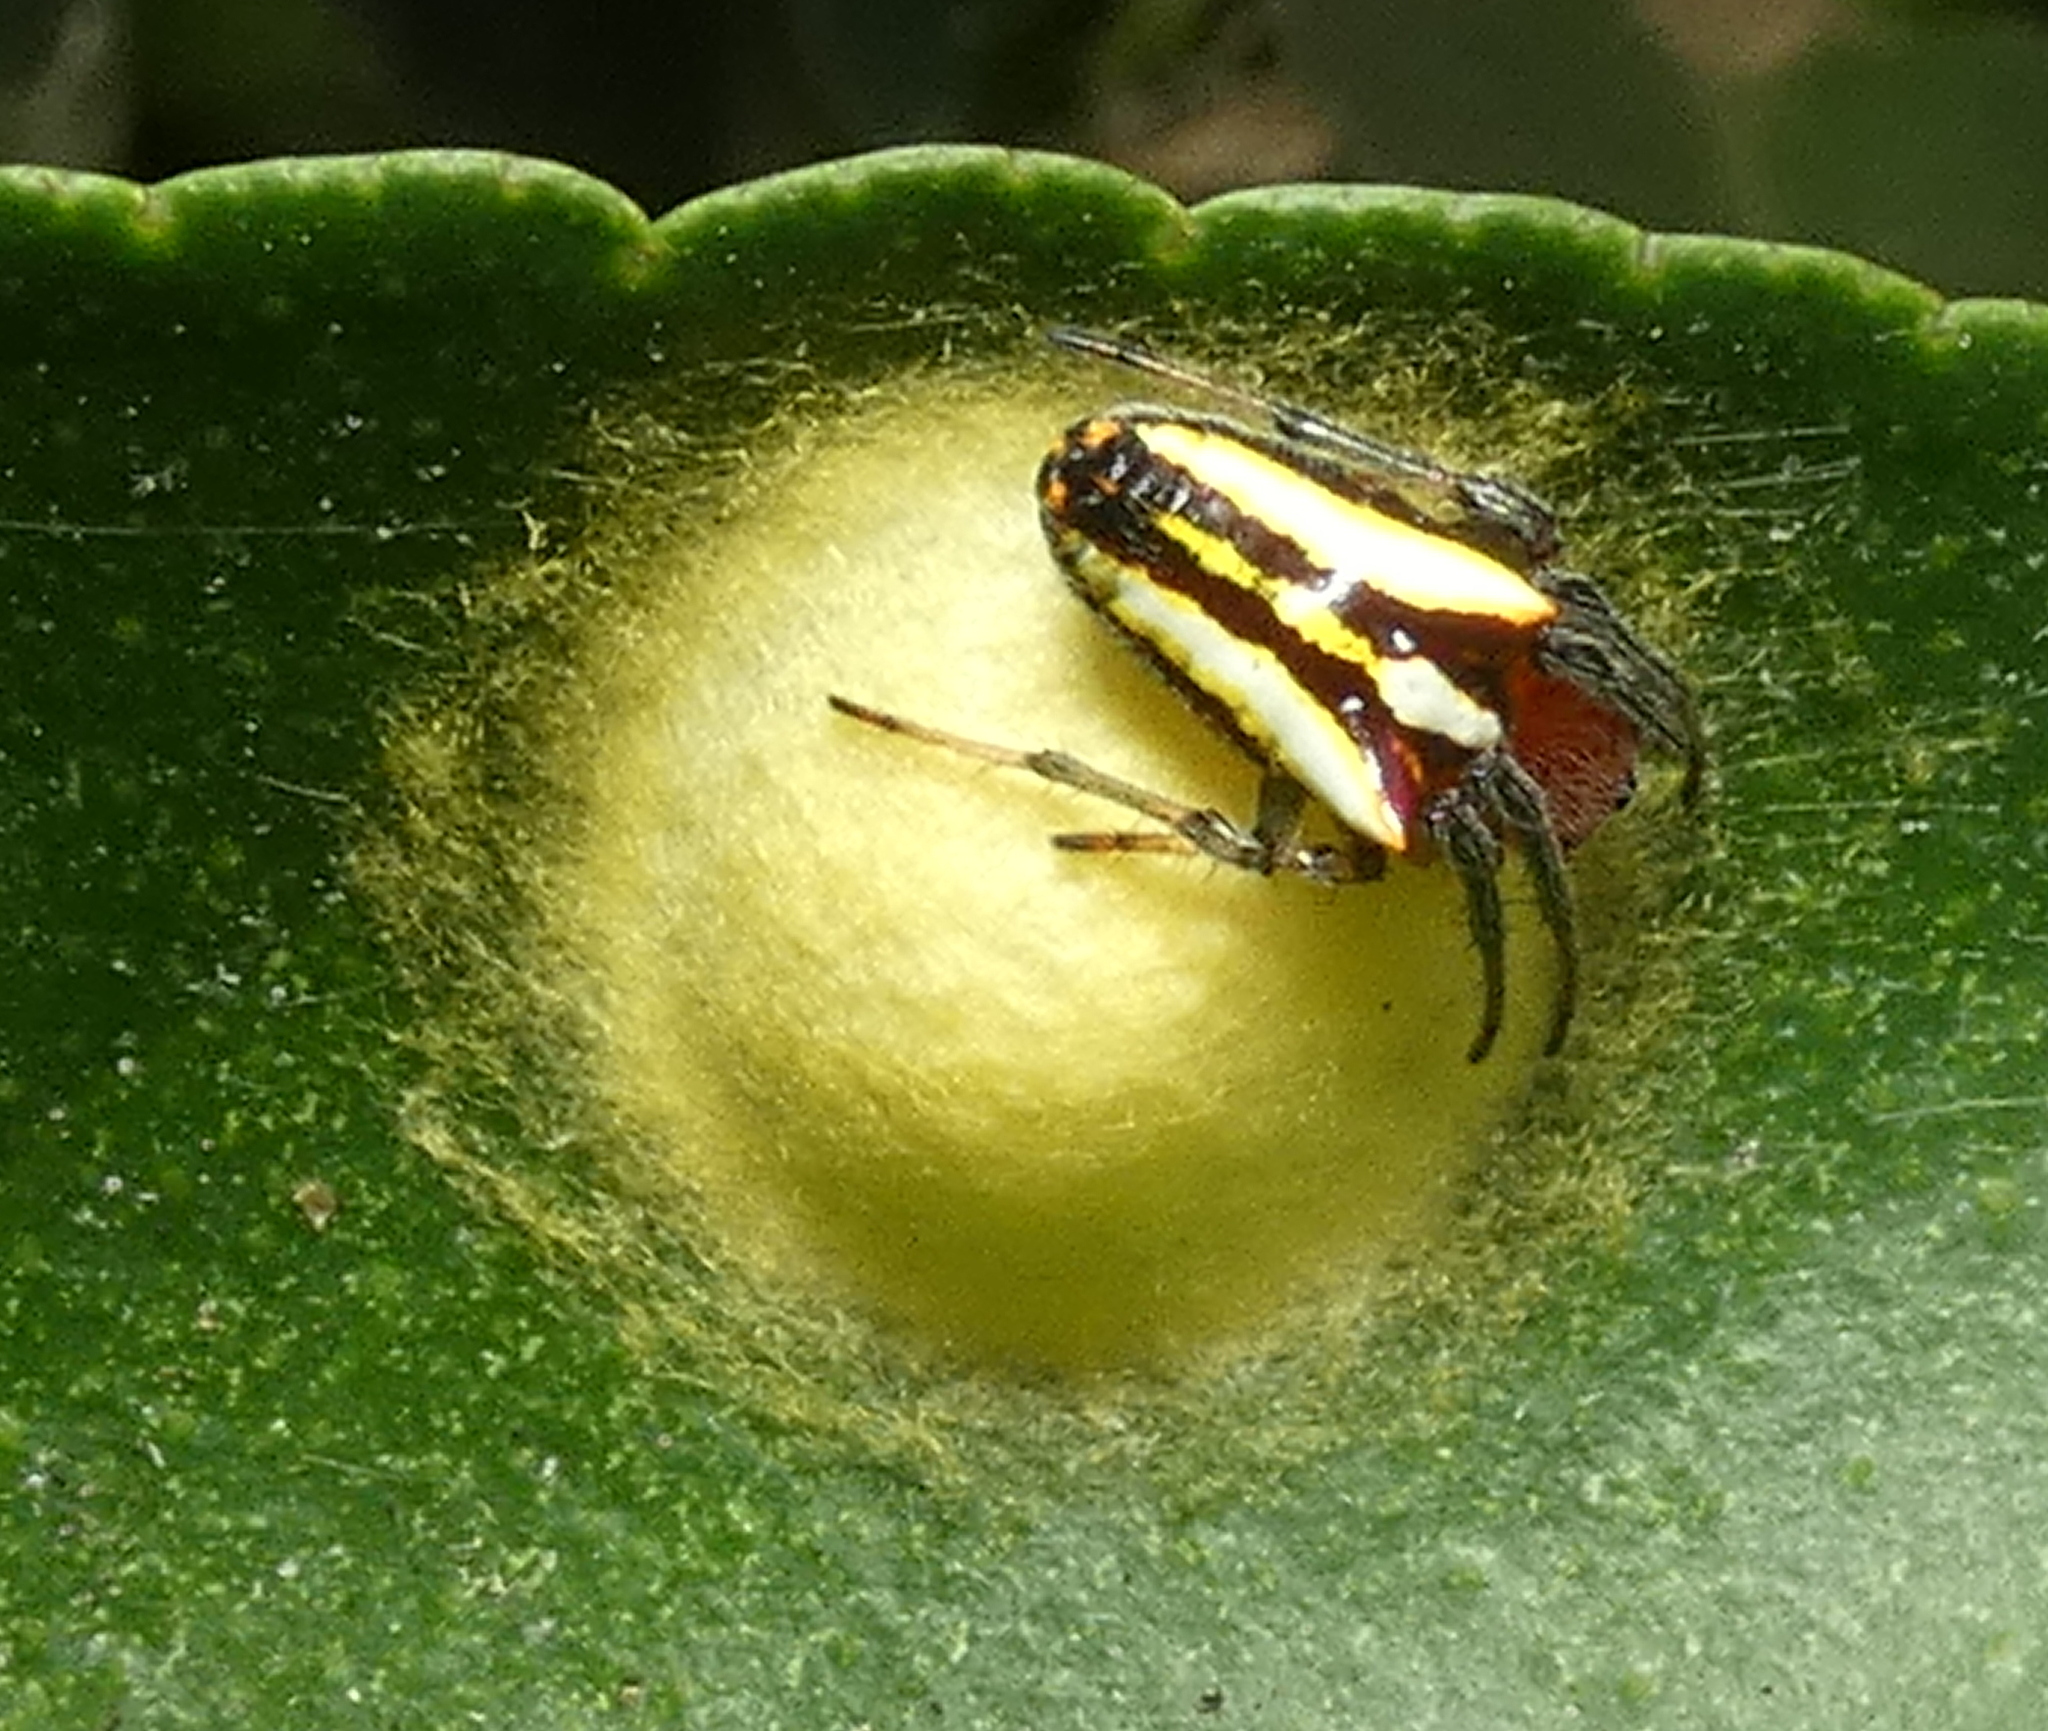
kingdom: Animalia
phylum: Arthropoda
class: Arachnida
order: Araneae
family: Araneidae
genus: Alpaida
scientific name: Alpaida bicornuta
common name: Orb weavers
